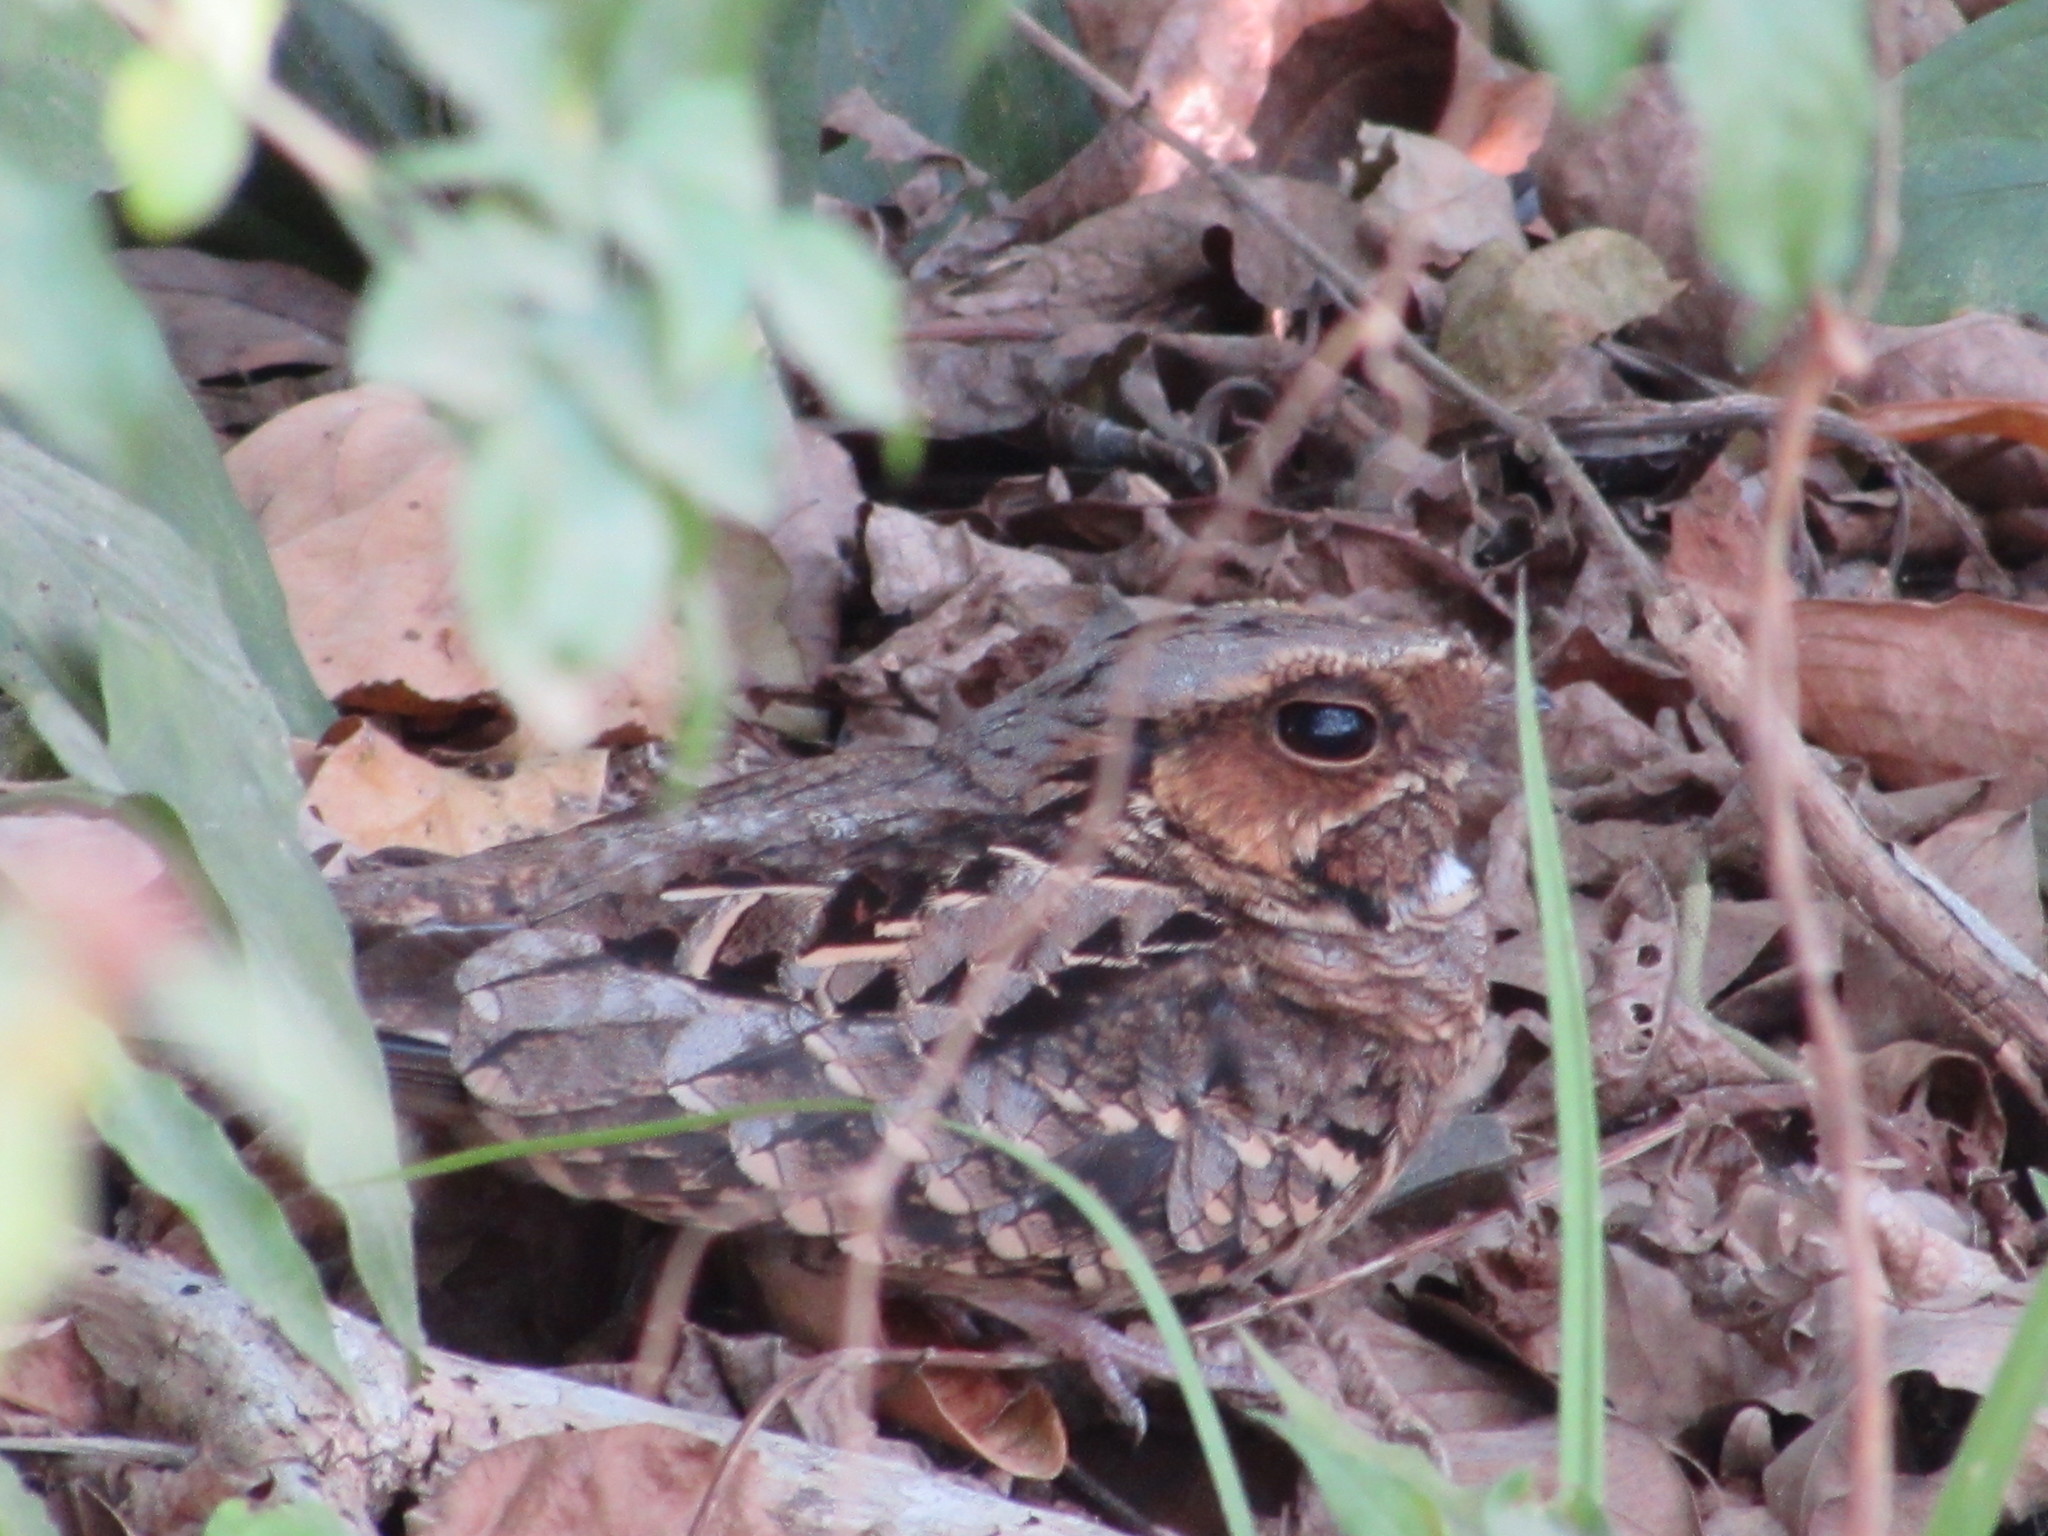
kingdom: Animalia
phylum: Chordata
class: Aves
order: Caprimulgiformes
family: Caprimulgidae
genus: Nyctidromus
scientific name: Nyctidromus albicollis
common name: Pauraque
